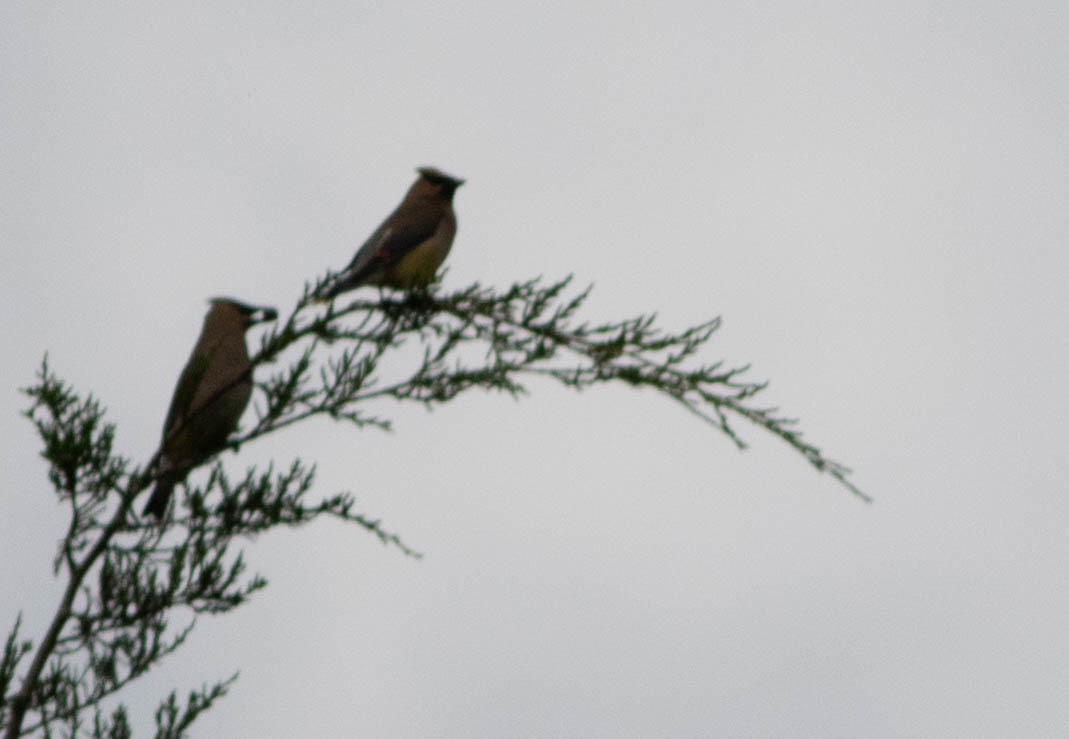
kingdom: Animalia
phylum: Chordata
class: Aves
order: Passeriformes
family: Bombycillidae
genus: Bombycilla
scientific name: Bombycilla cedrorum
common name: Cedar waxwing
